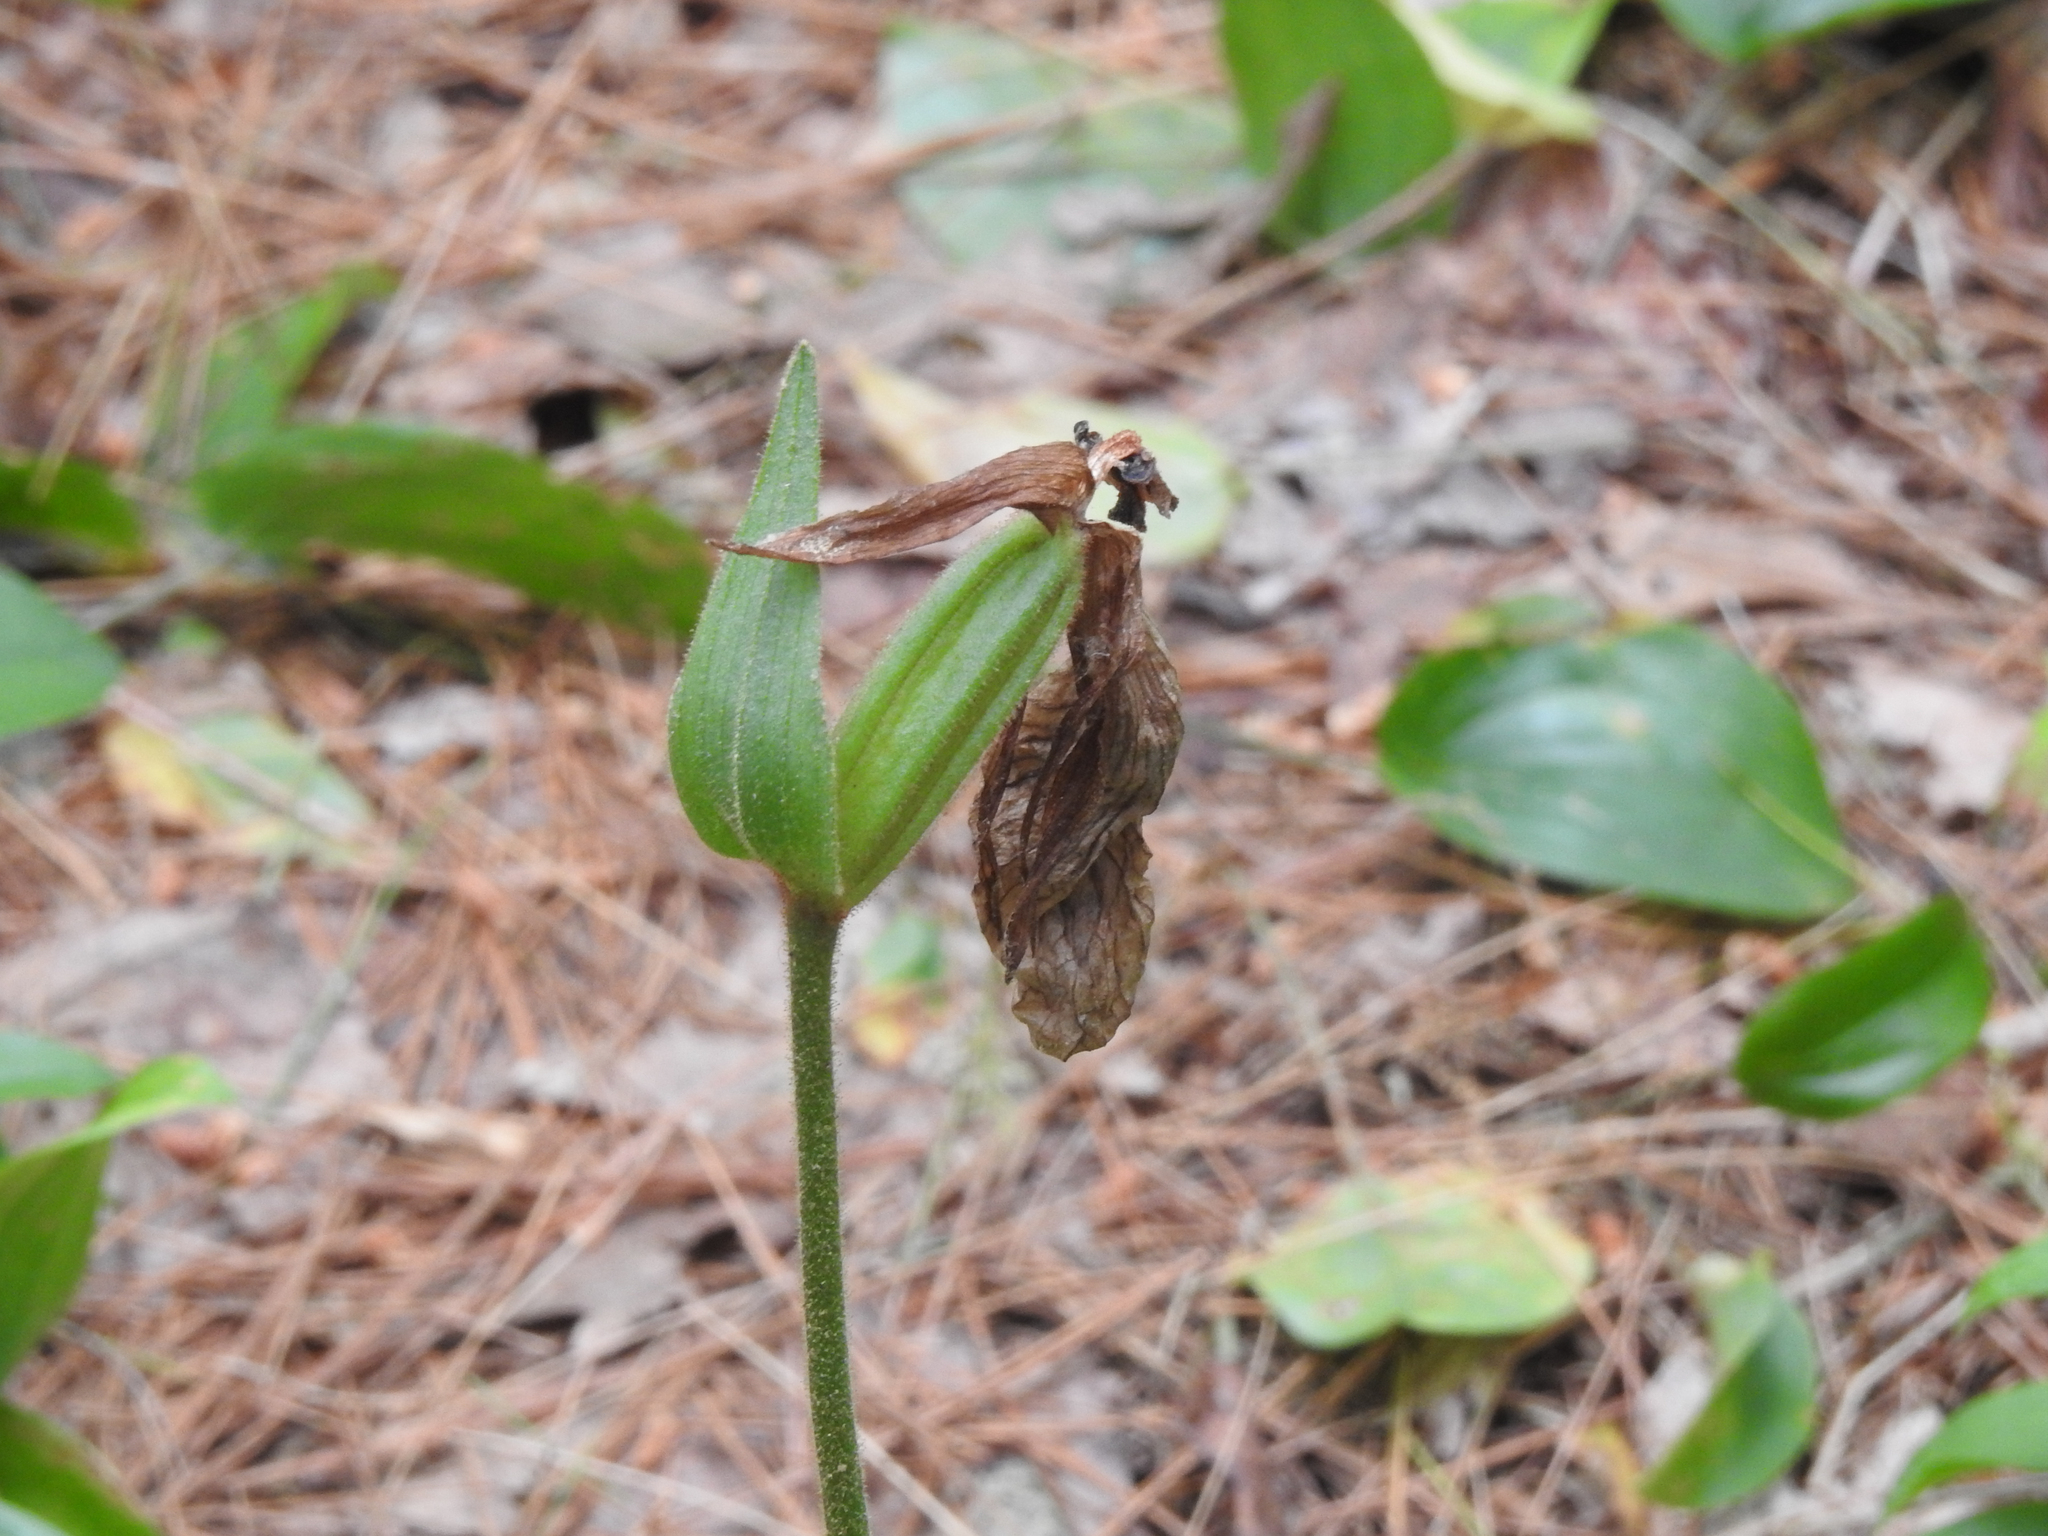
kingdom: Plantae
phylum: Tracheophyta
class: Liliopsida
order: Asparagales
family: Orchidaceae
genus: Cypripedium
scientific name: Cypripedium acaule
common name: Pink lady's-slipper
